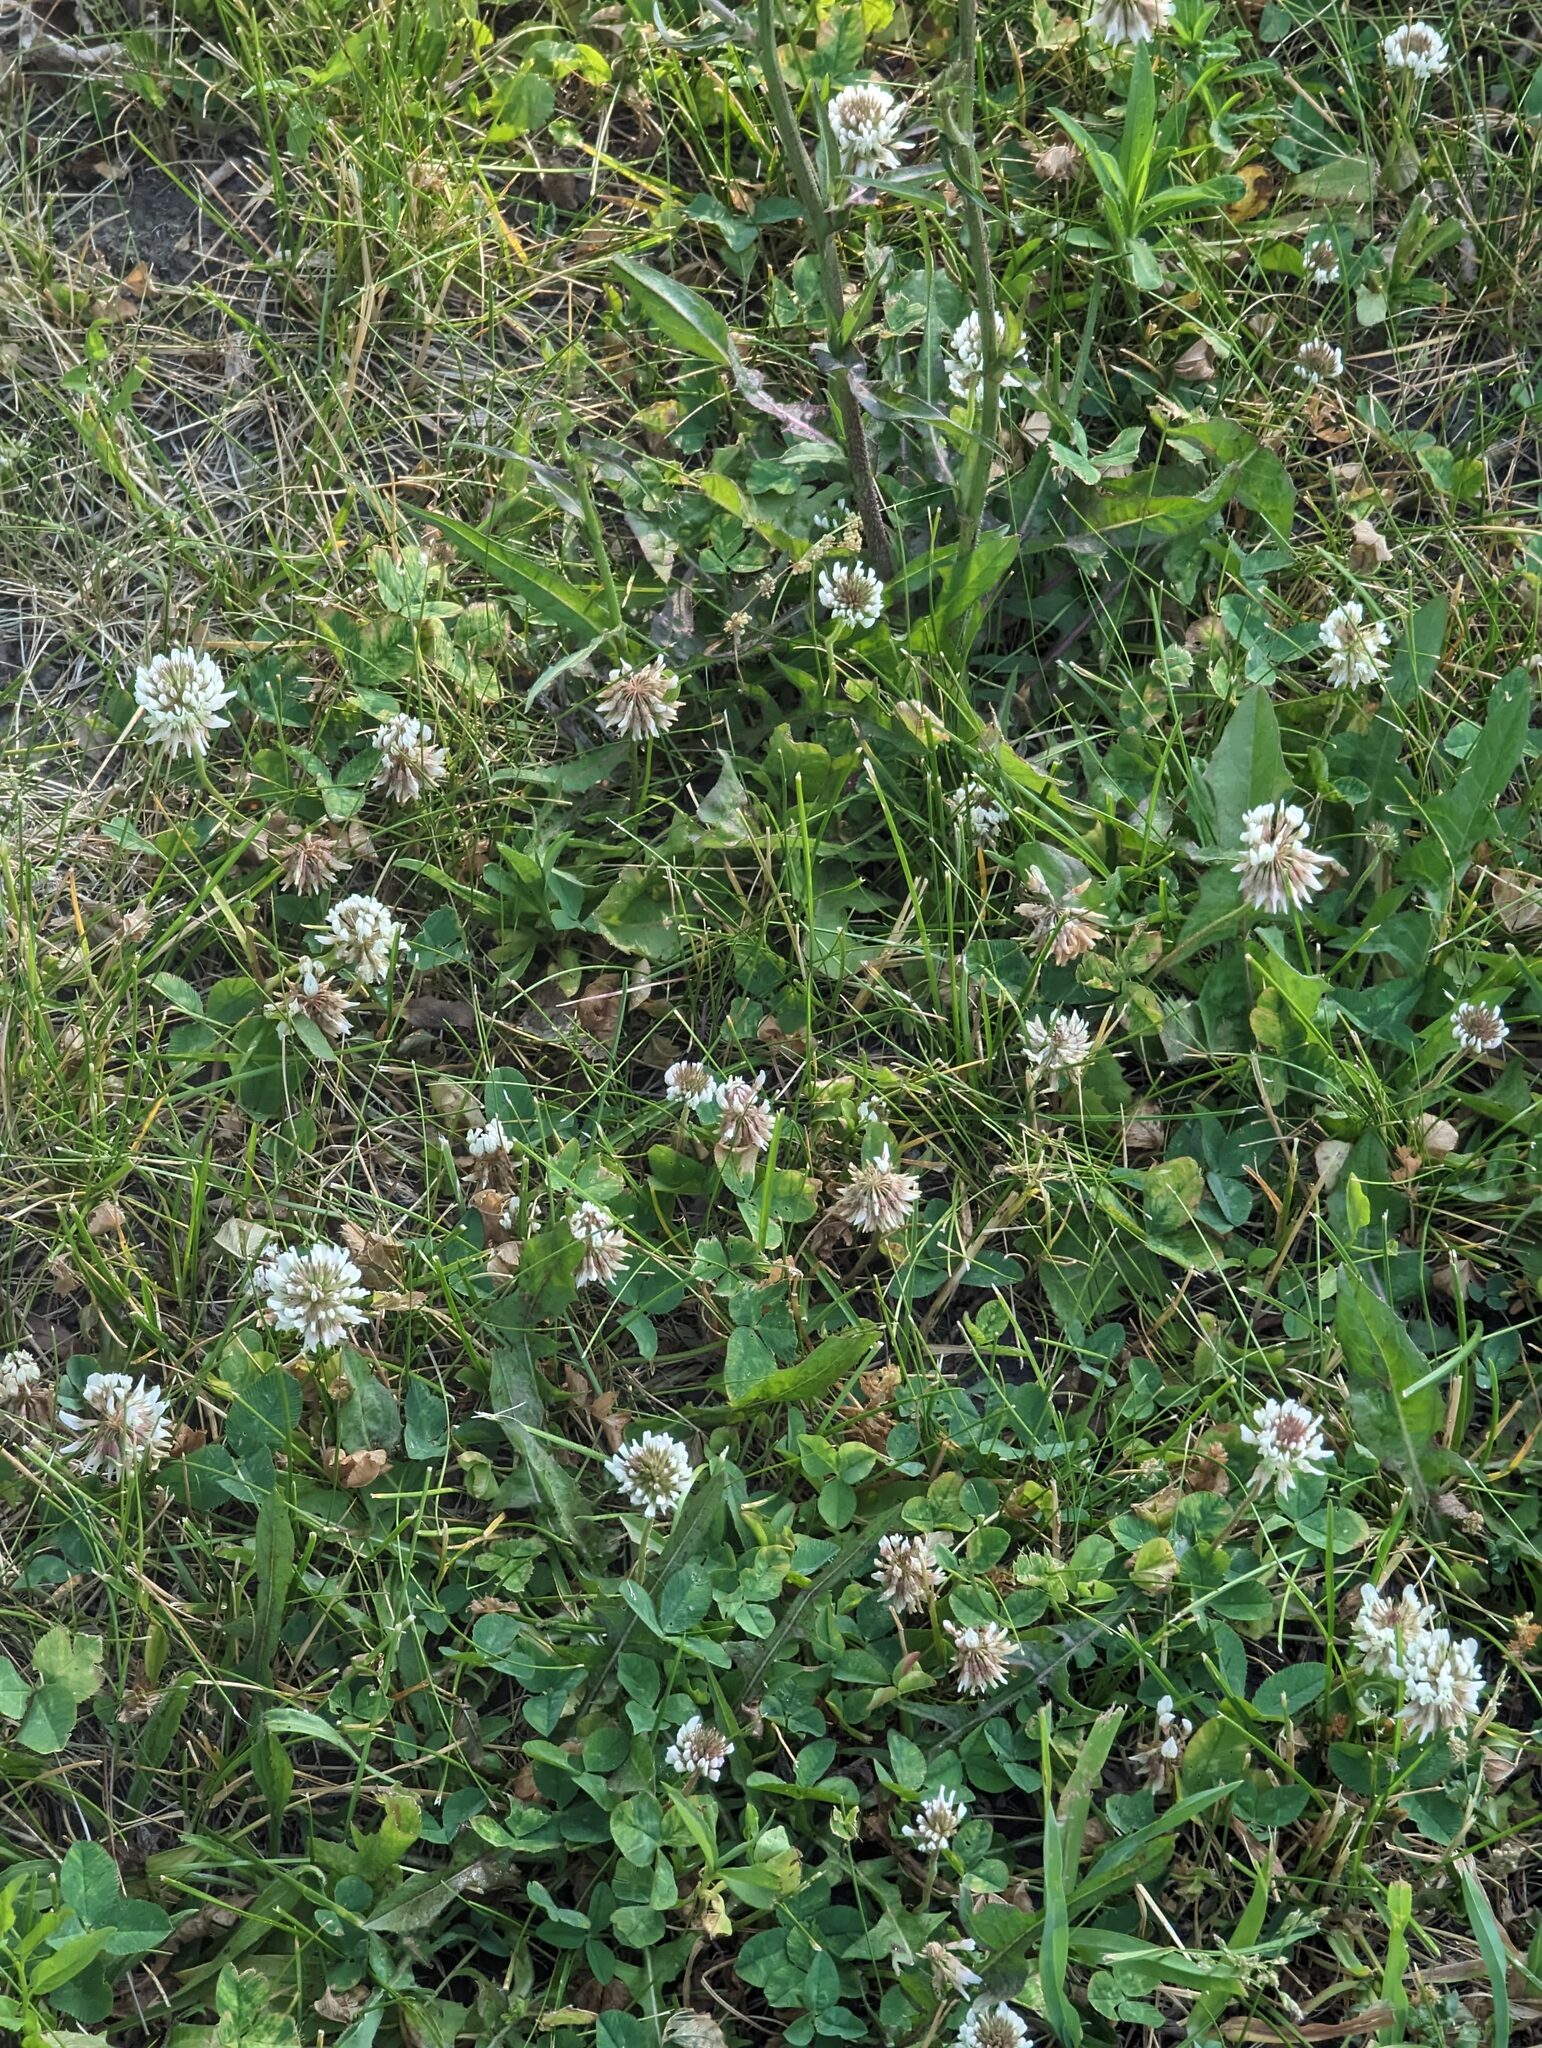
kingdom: Plantae
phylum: Tracheophyta
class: Magnoliopsida
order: Fabales
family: Fabaceae
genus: Trifolium
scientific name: Trifolium repens
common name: White clover
